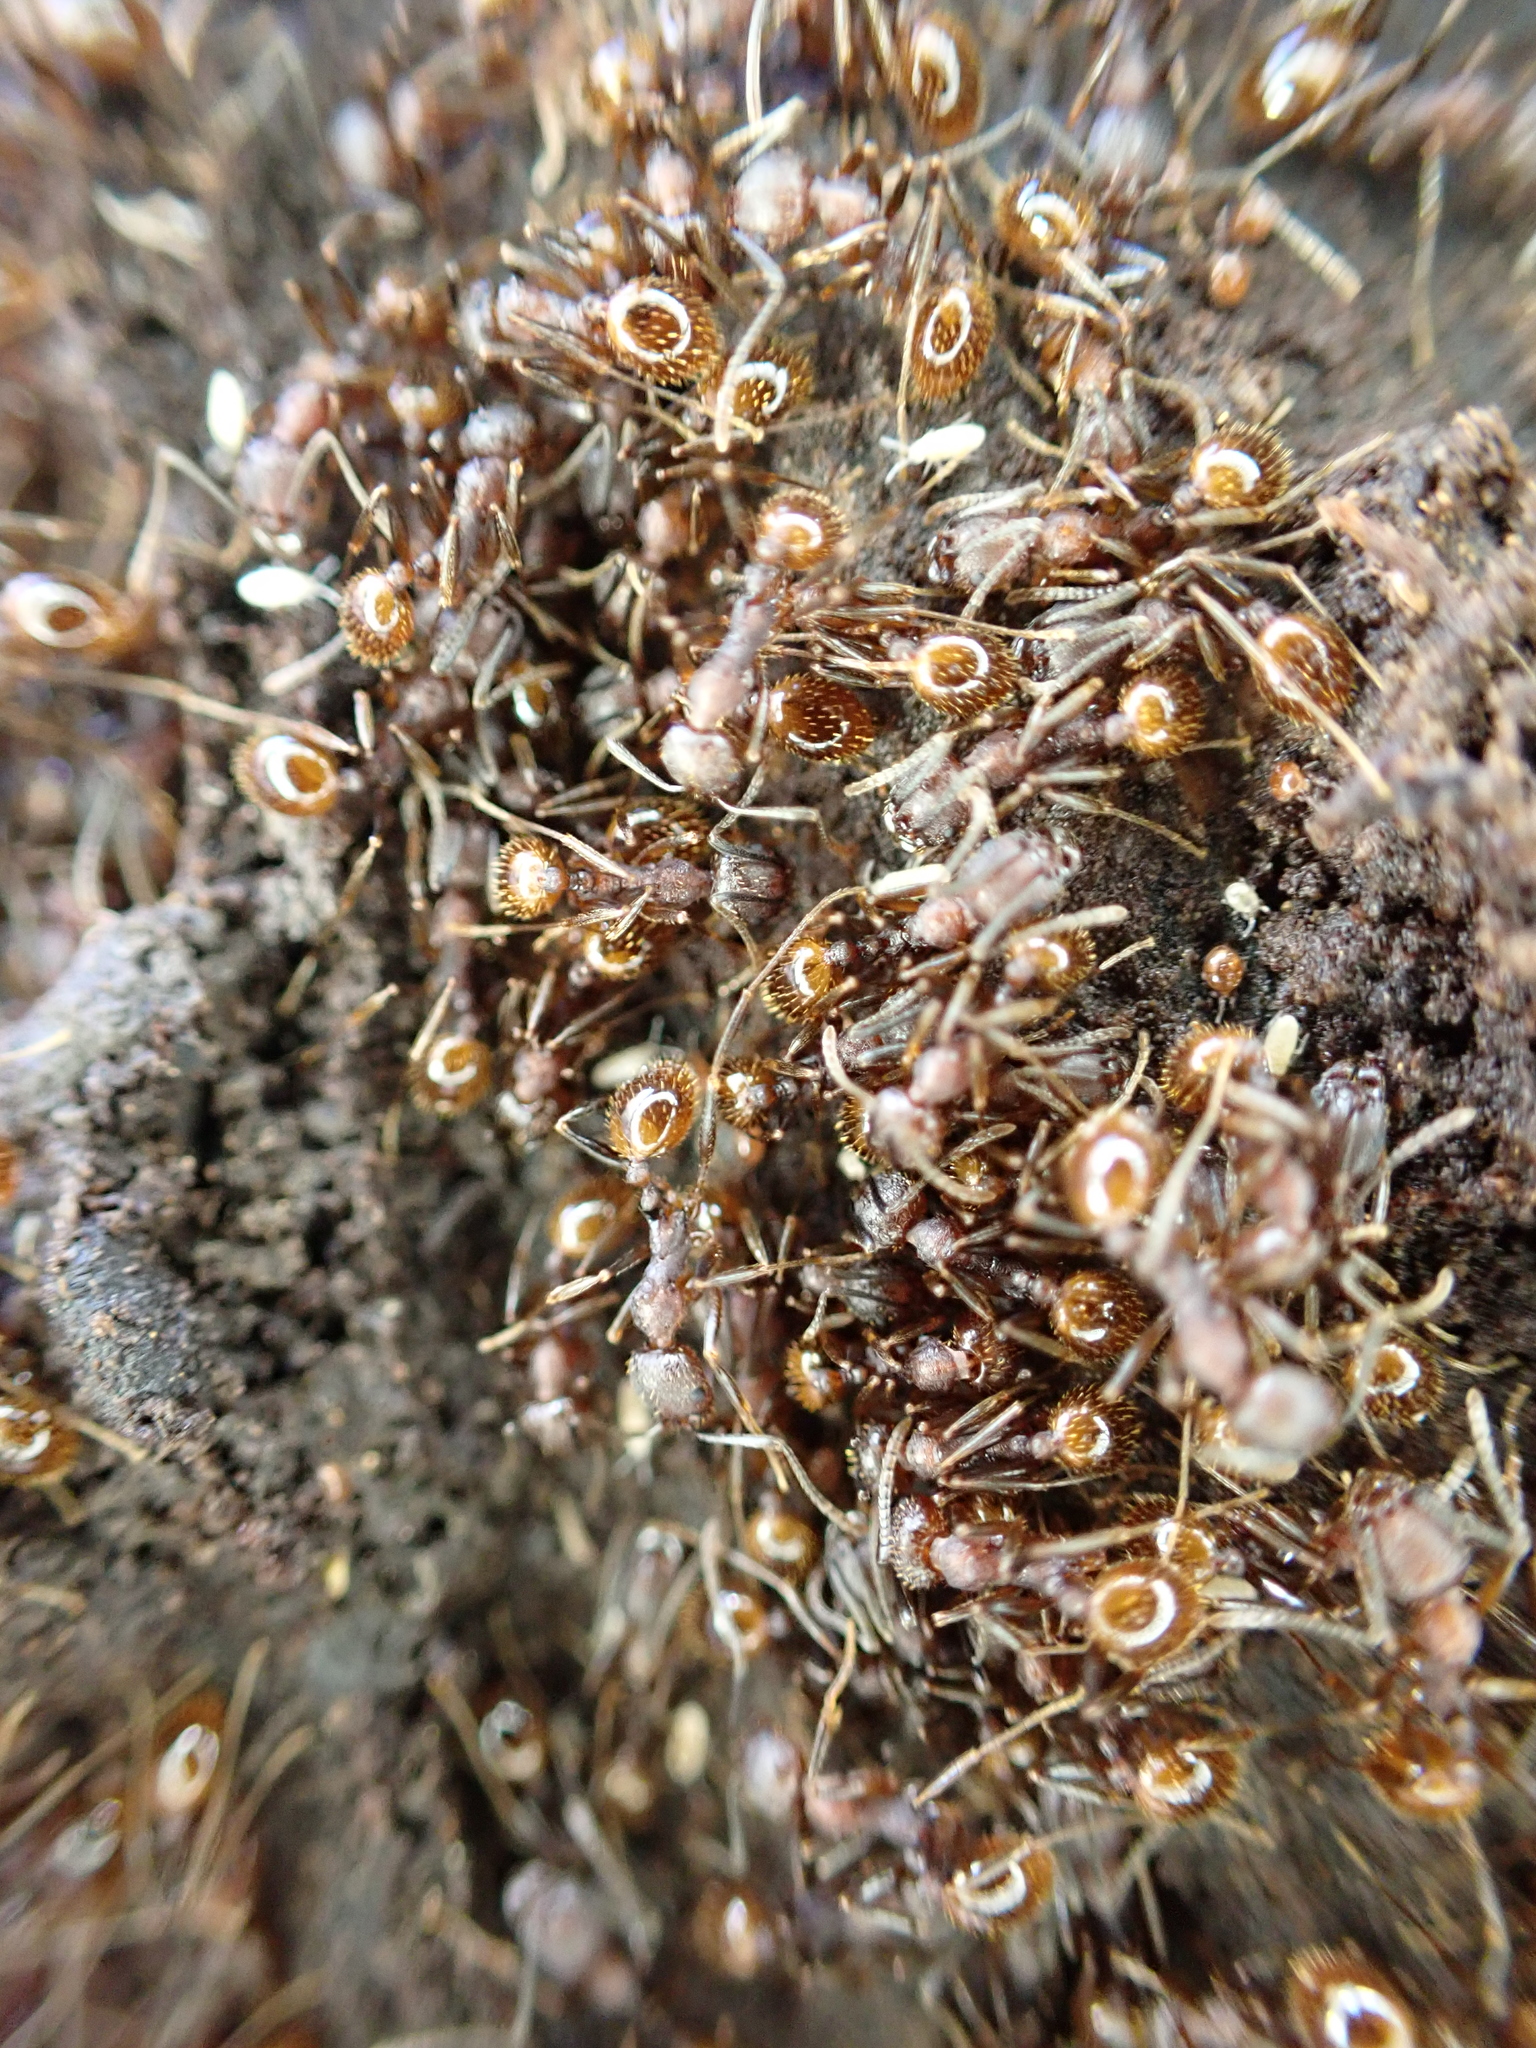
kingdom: Animalia
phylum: Arthropoda
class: Insecta
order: Hymenoptera
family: Formicidae
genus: Aphaenogaster
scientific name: Aphaenogaster fulva
